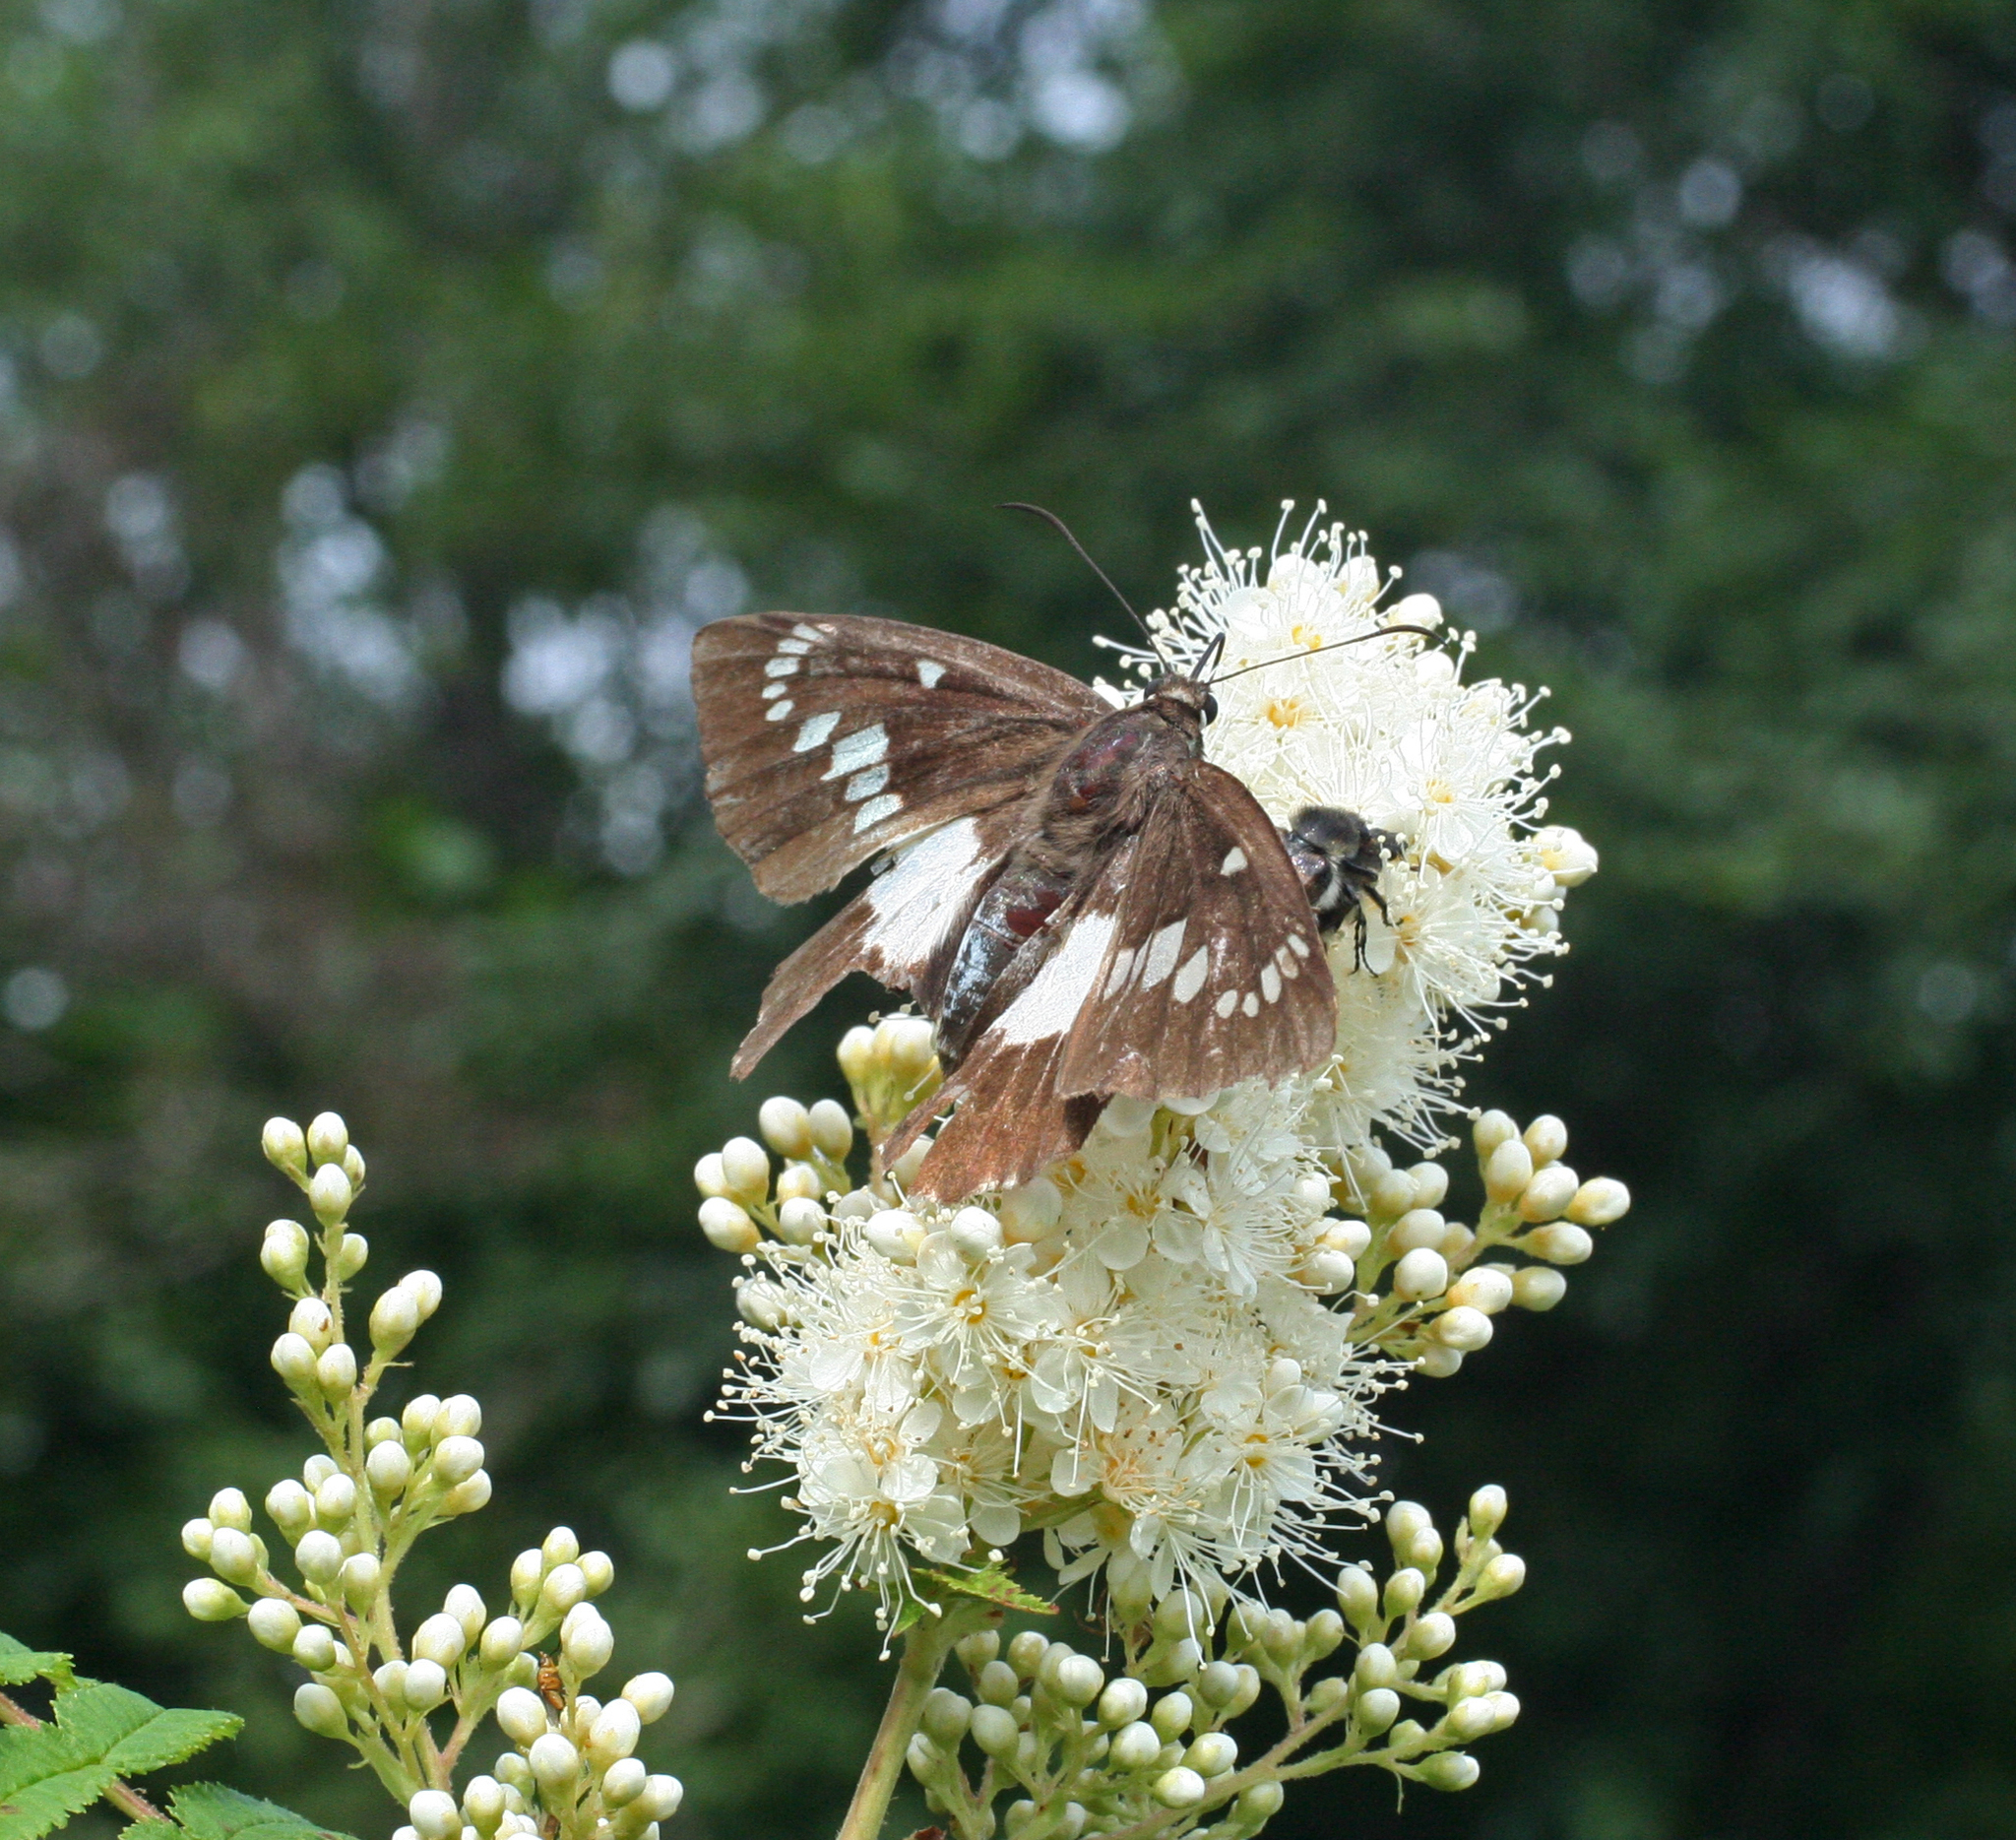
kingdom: Plantae
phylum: Tracheophyta
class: Magnoliopsida
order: Rosales
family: Rosaceae
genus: Sorbaria
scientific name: Sorbaria sorbifolia
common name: False spiraea
